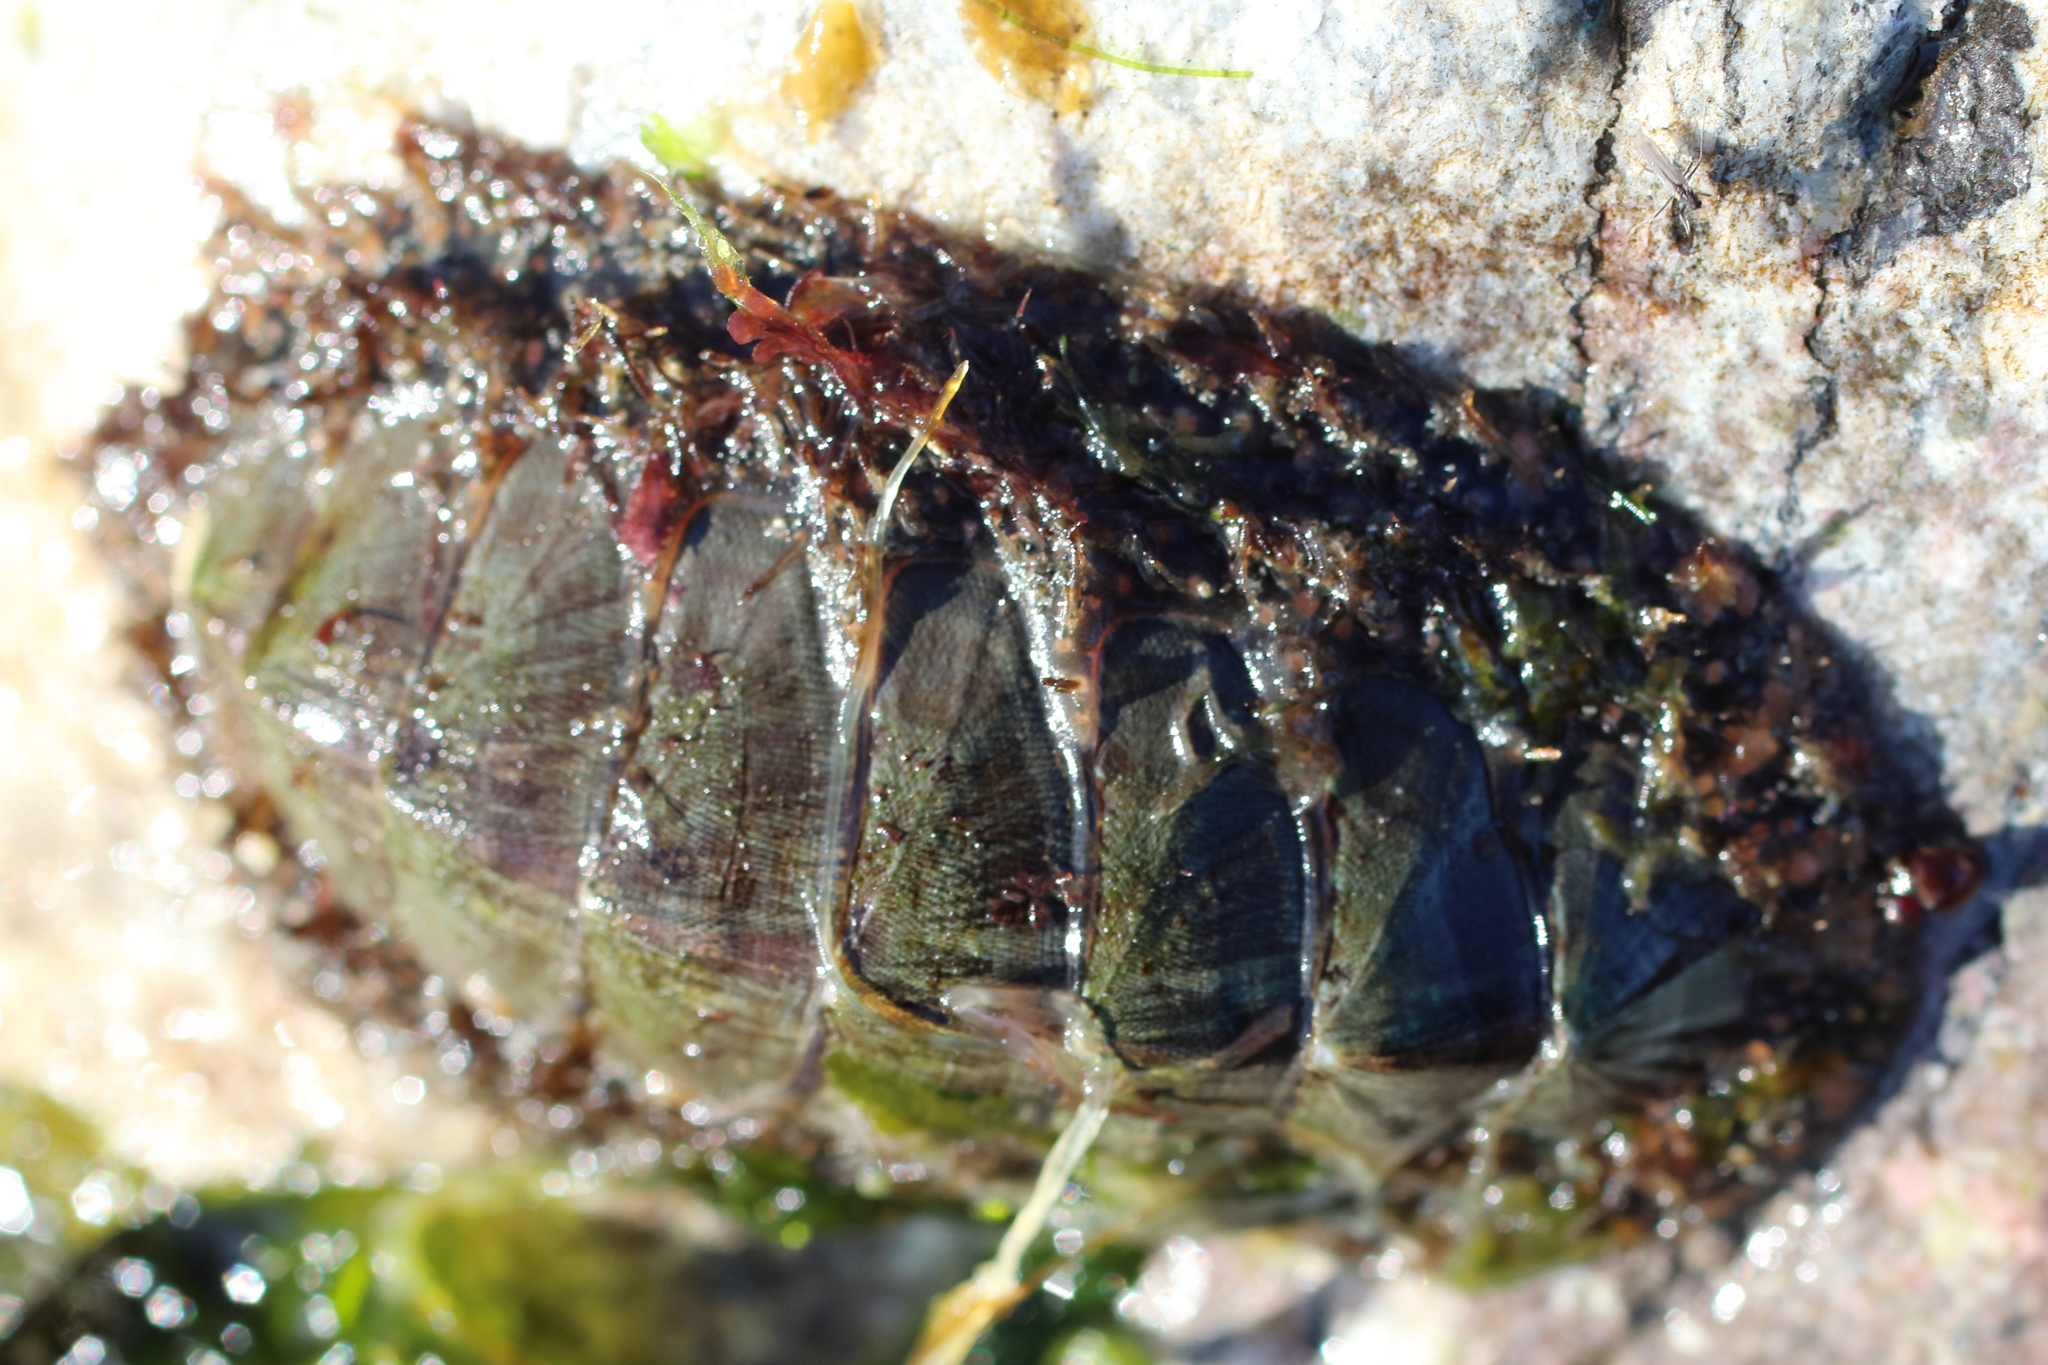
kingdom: Animalia
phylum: Mollusca
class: Polyplacophora
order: Chitonida
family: Mopaliidae
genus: Mopalia
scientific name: Mopalia lignosa
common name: Woody chiton
